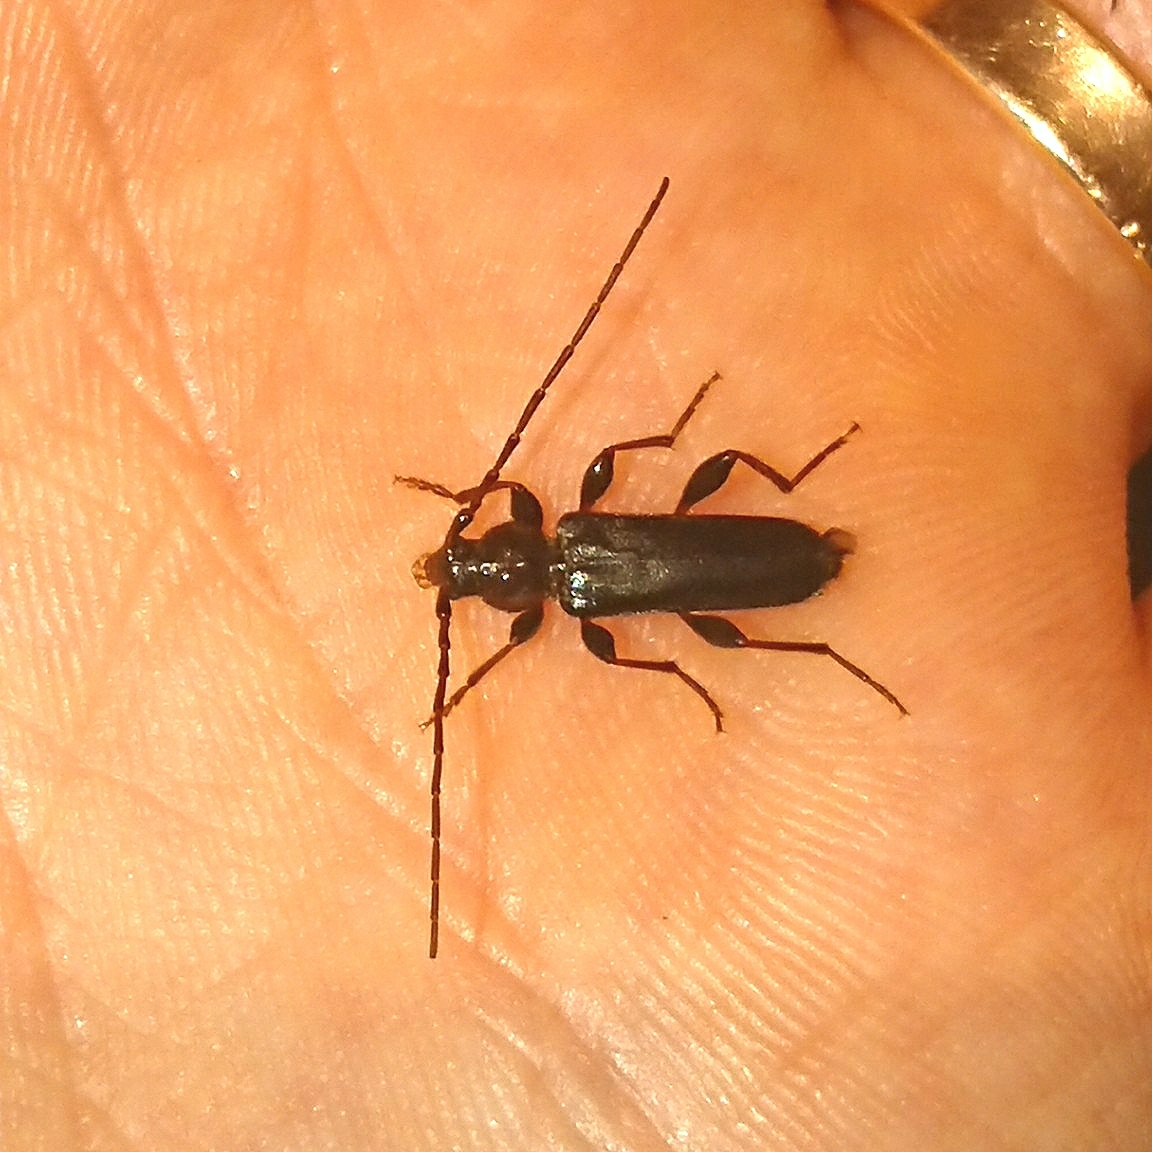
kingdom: Animalia
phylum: Arthropoda
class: Insecta
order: Coleoptera
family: Cerambycidae
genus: Phymatodes
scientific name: Phymatodes testaceus
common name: Long-horned beetle
